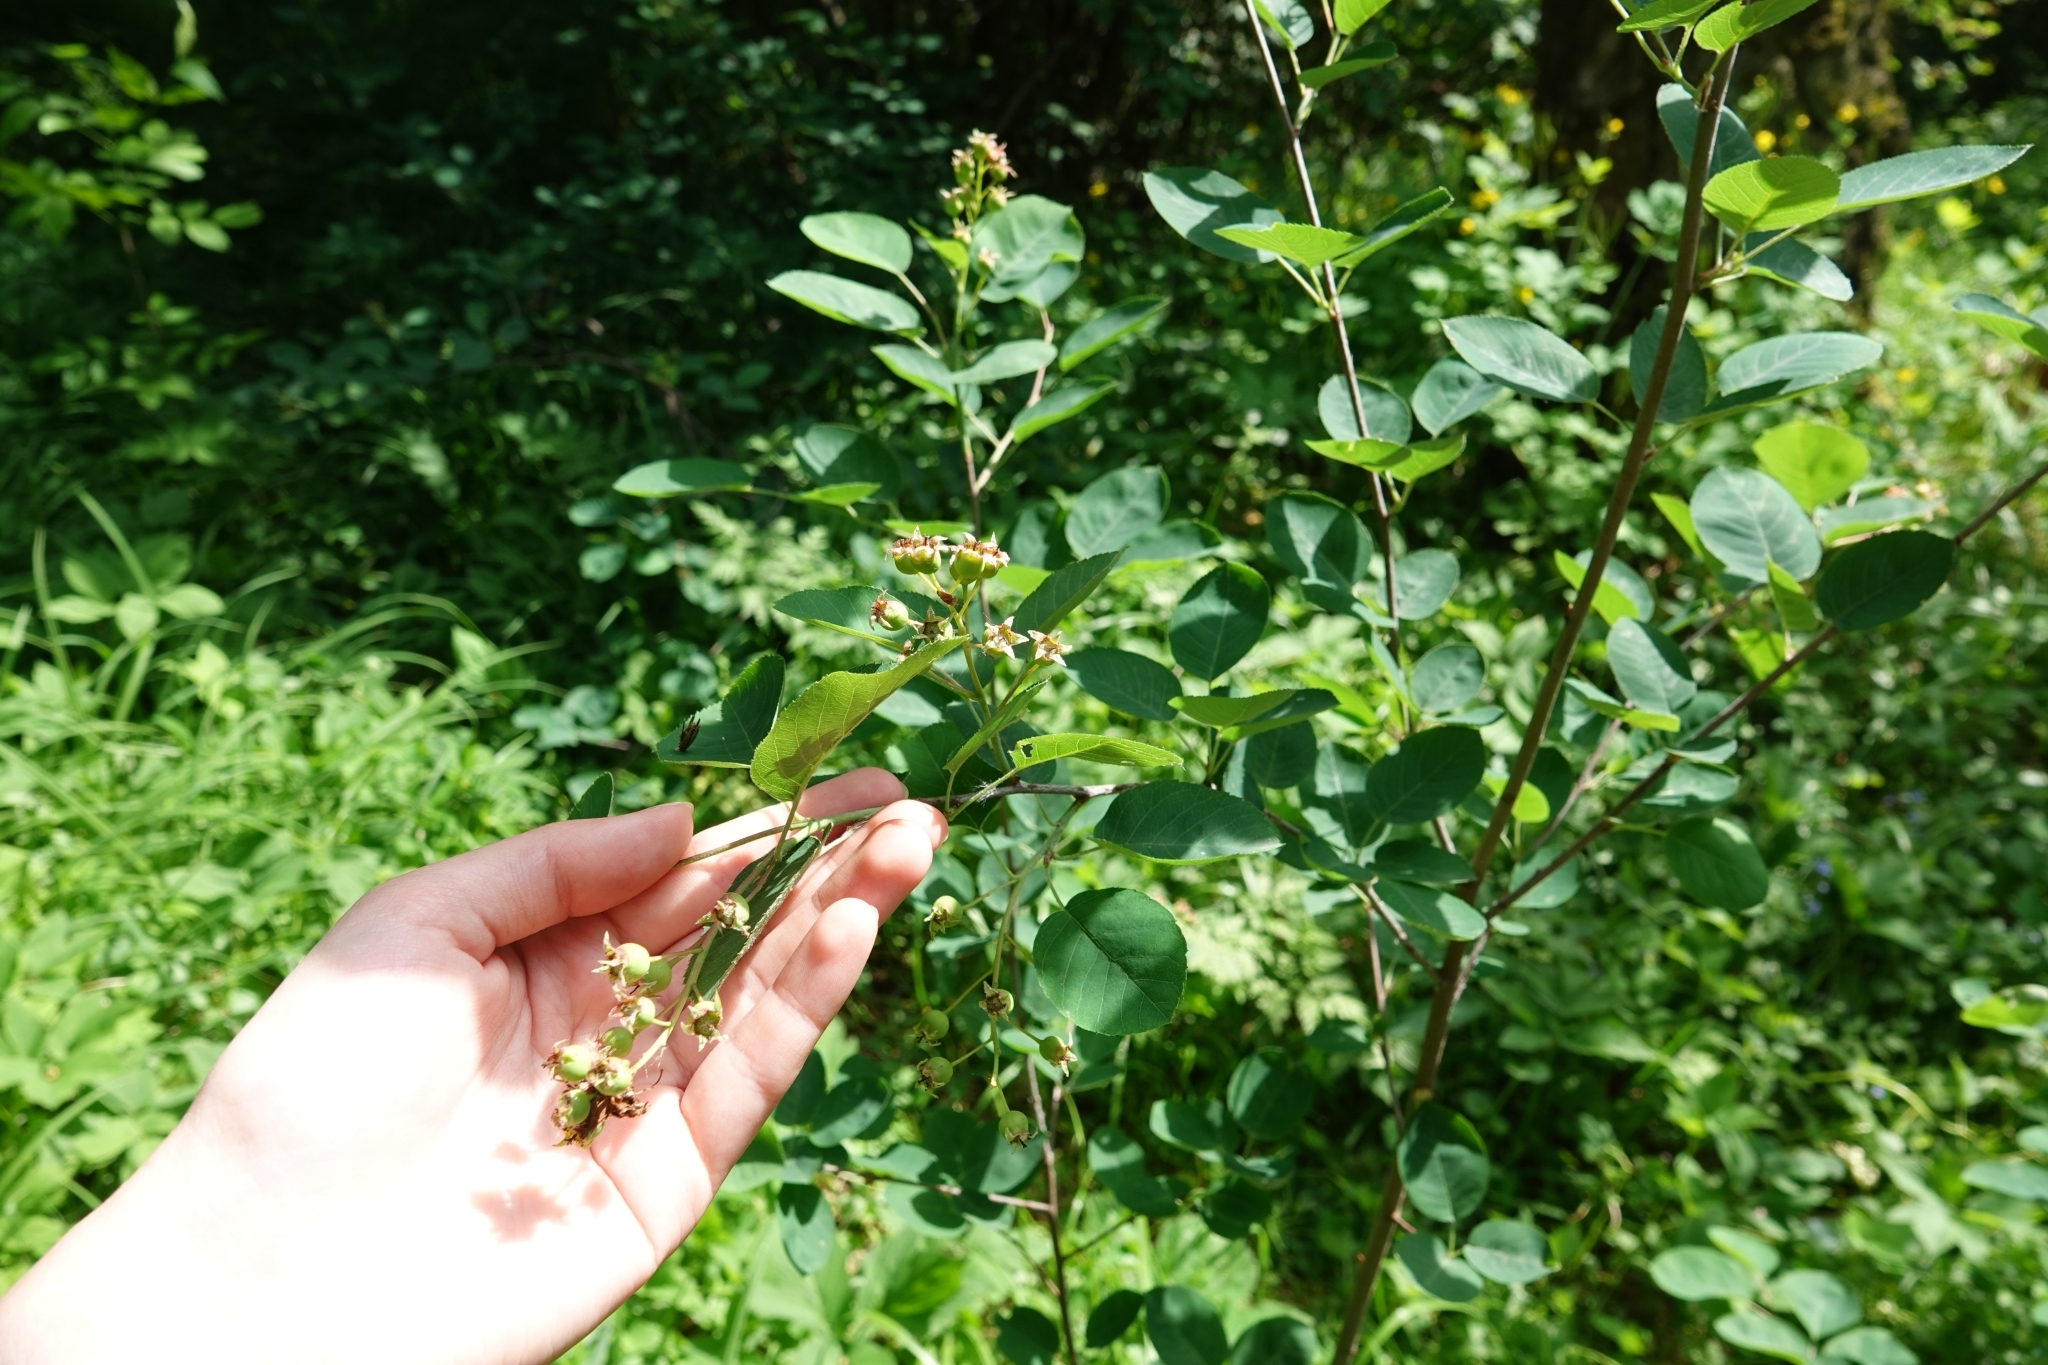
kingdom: Plantae
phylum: Tracheophyta
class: Magnoliopsida
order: Rosales
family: Rosaceae
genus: Amelanchier
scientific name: Amelanchier
